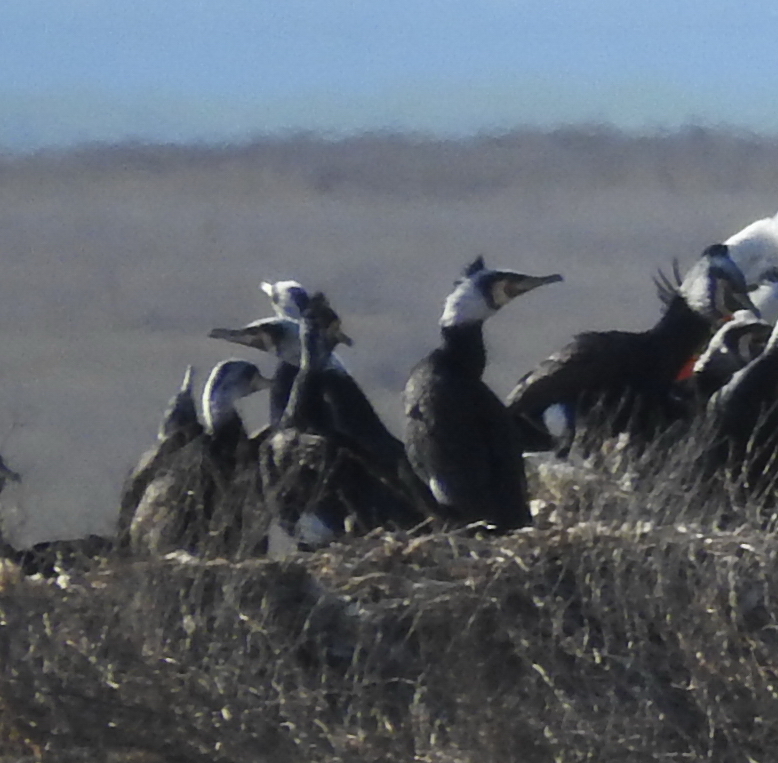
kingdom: Animalia
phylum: Chordata
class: Aves
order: Suliformes
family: Phalacrocoracidae
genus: Phalacrocorax
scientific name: Phalacrocorax carbo
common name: Great cormorant
